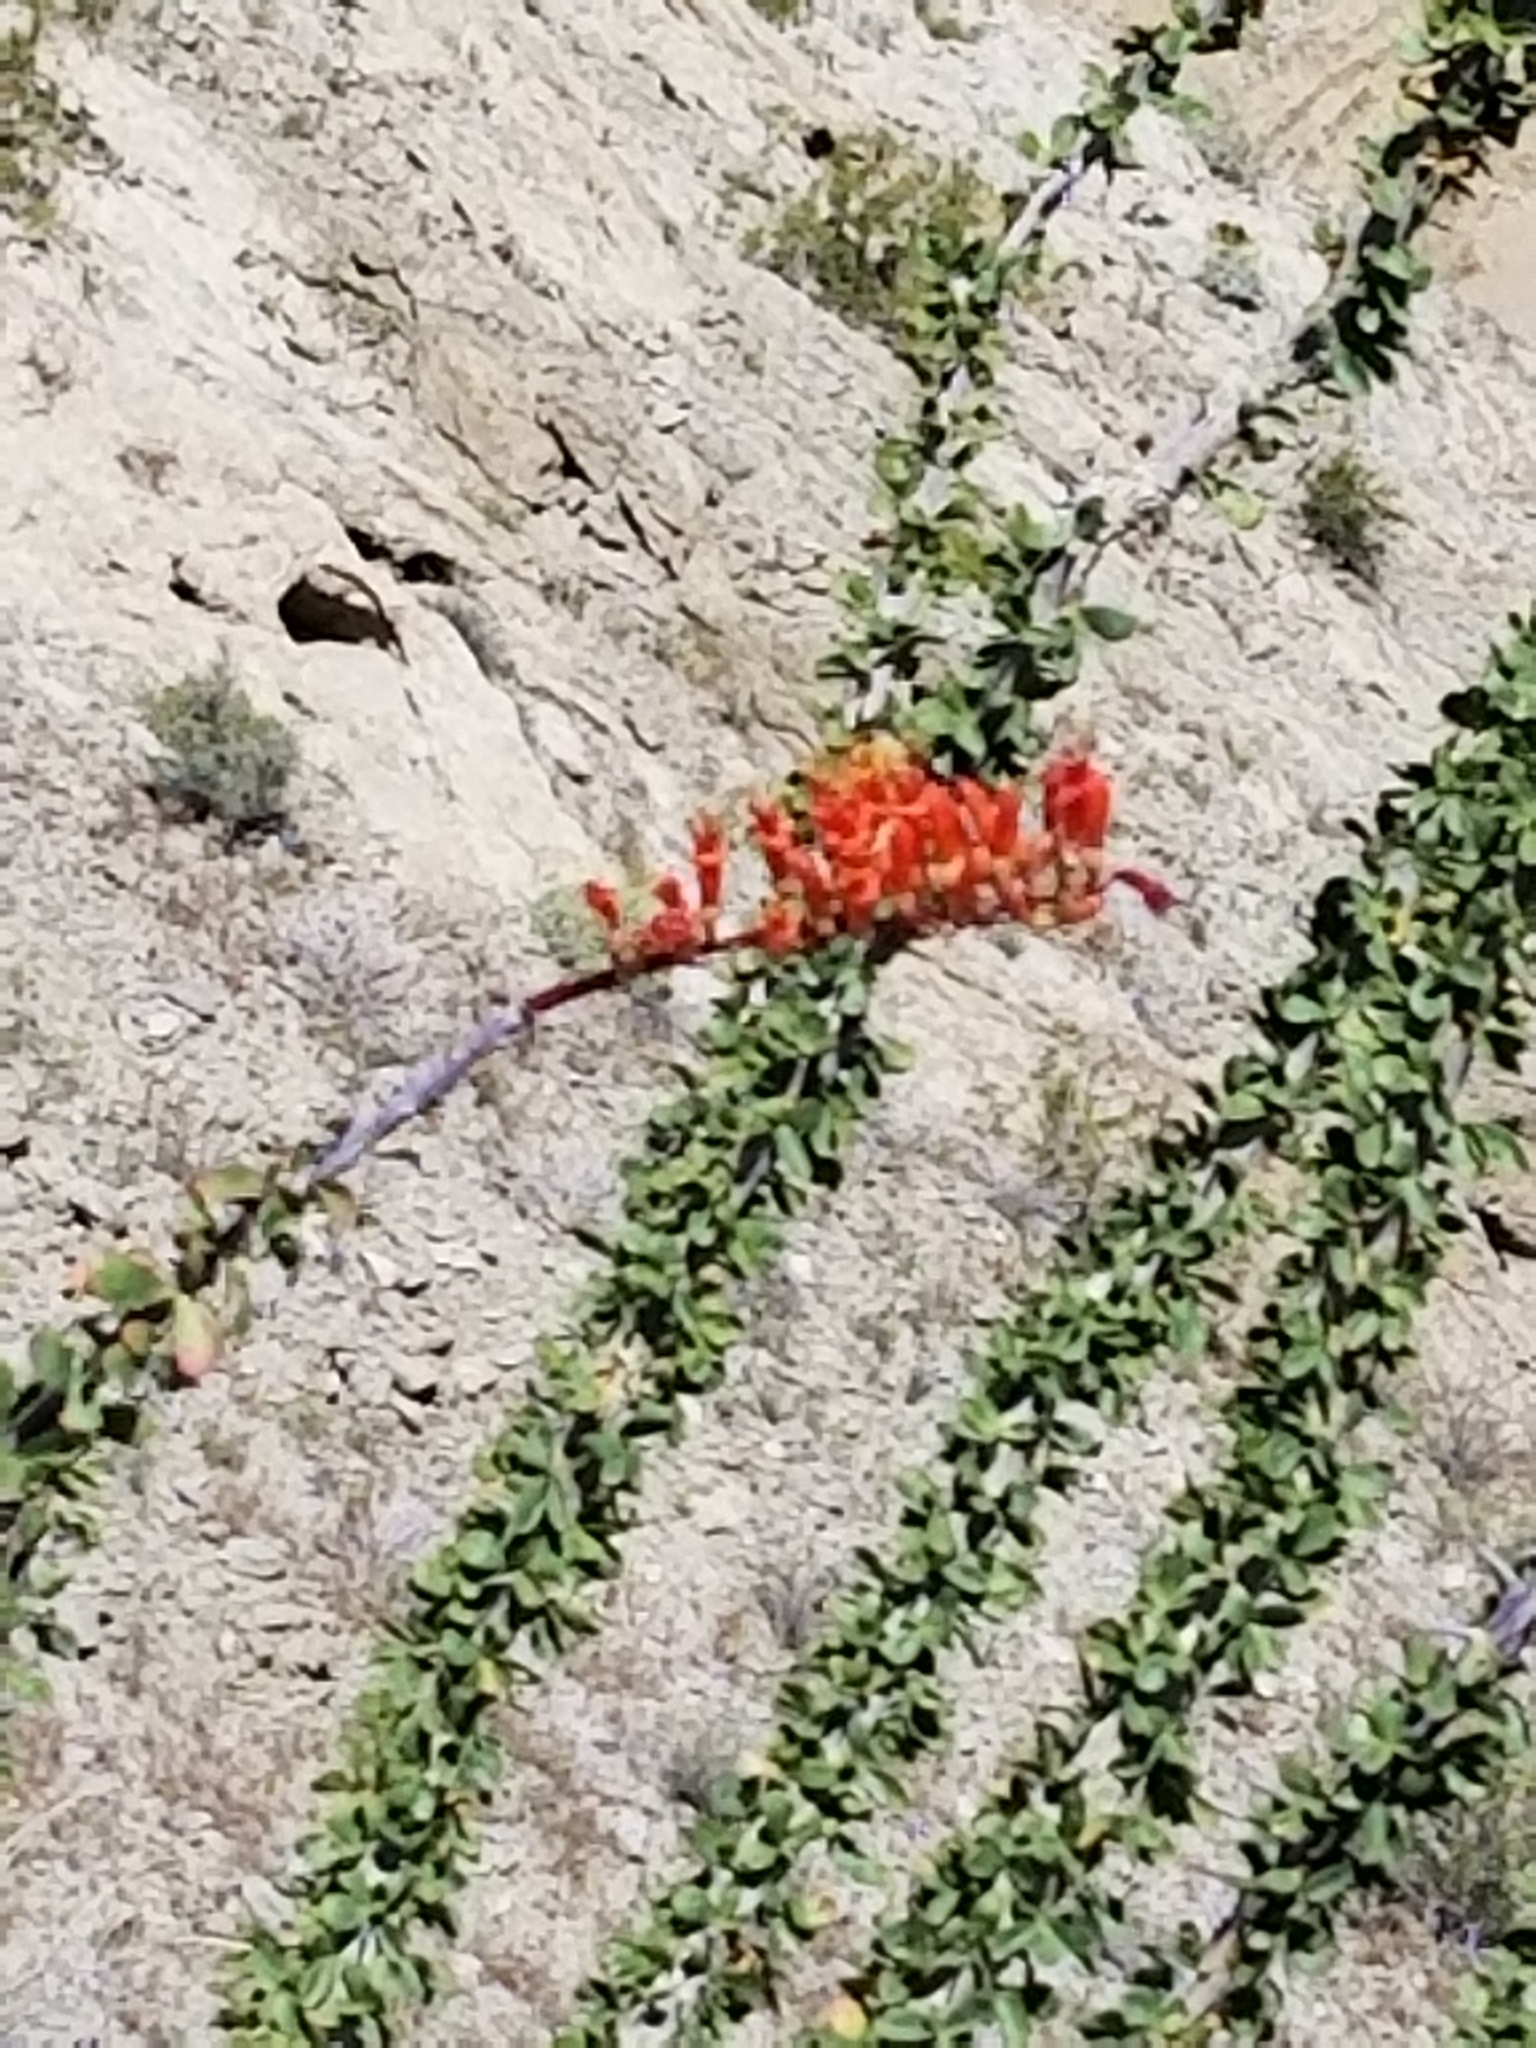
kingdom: Plantae
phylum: Tracheophyta
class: Magnoliopsida
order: Ericales
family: Fouquieriaceae
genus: Fouquieria
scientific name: Fouquieria splendens
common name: Vine-cactus
